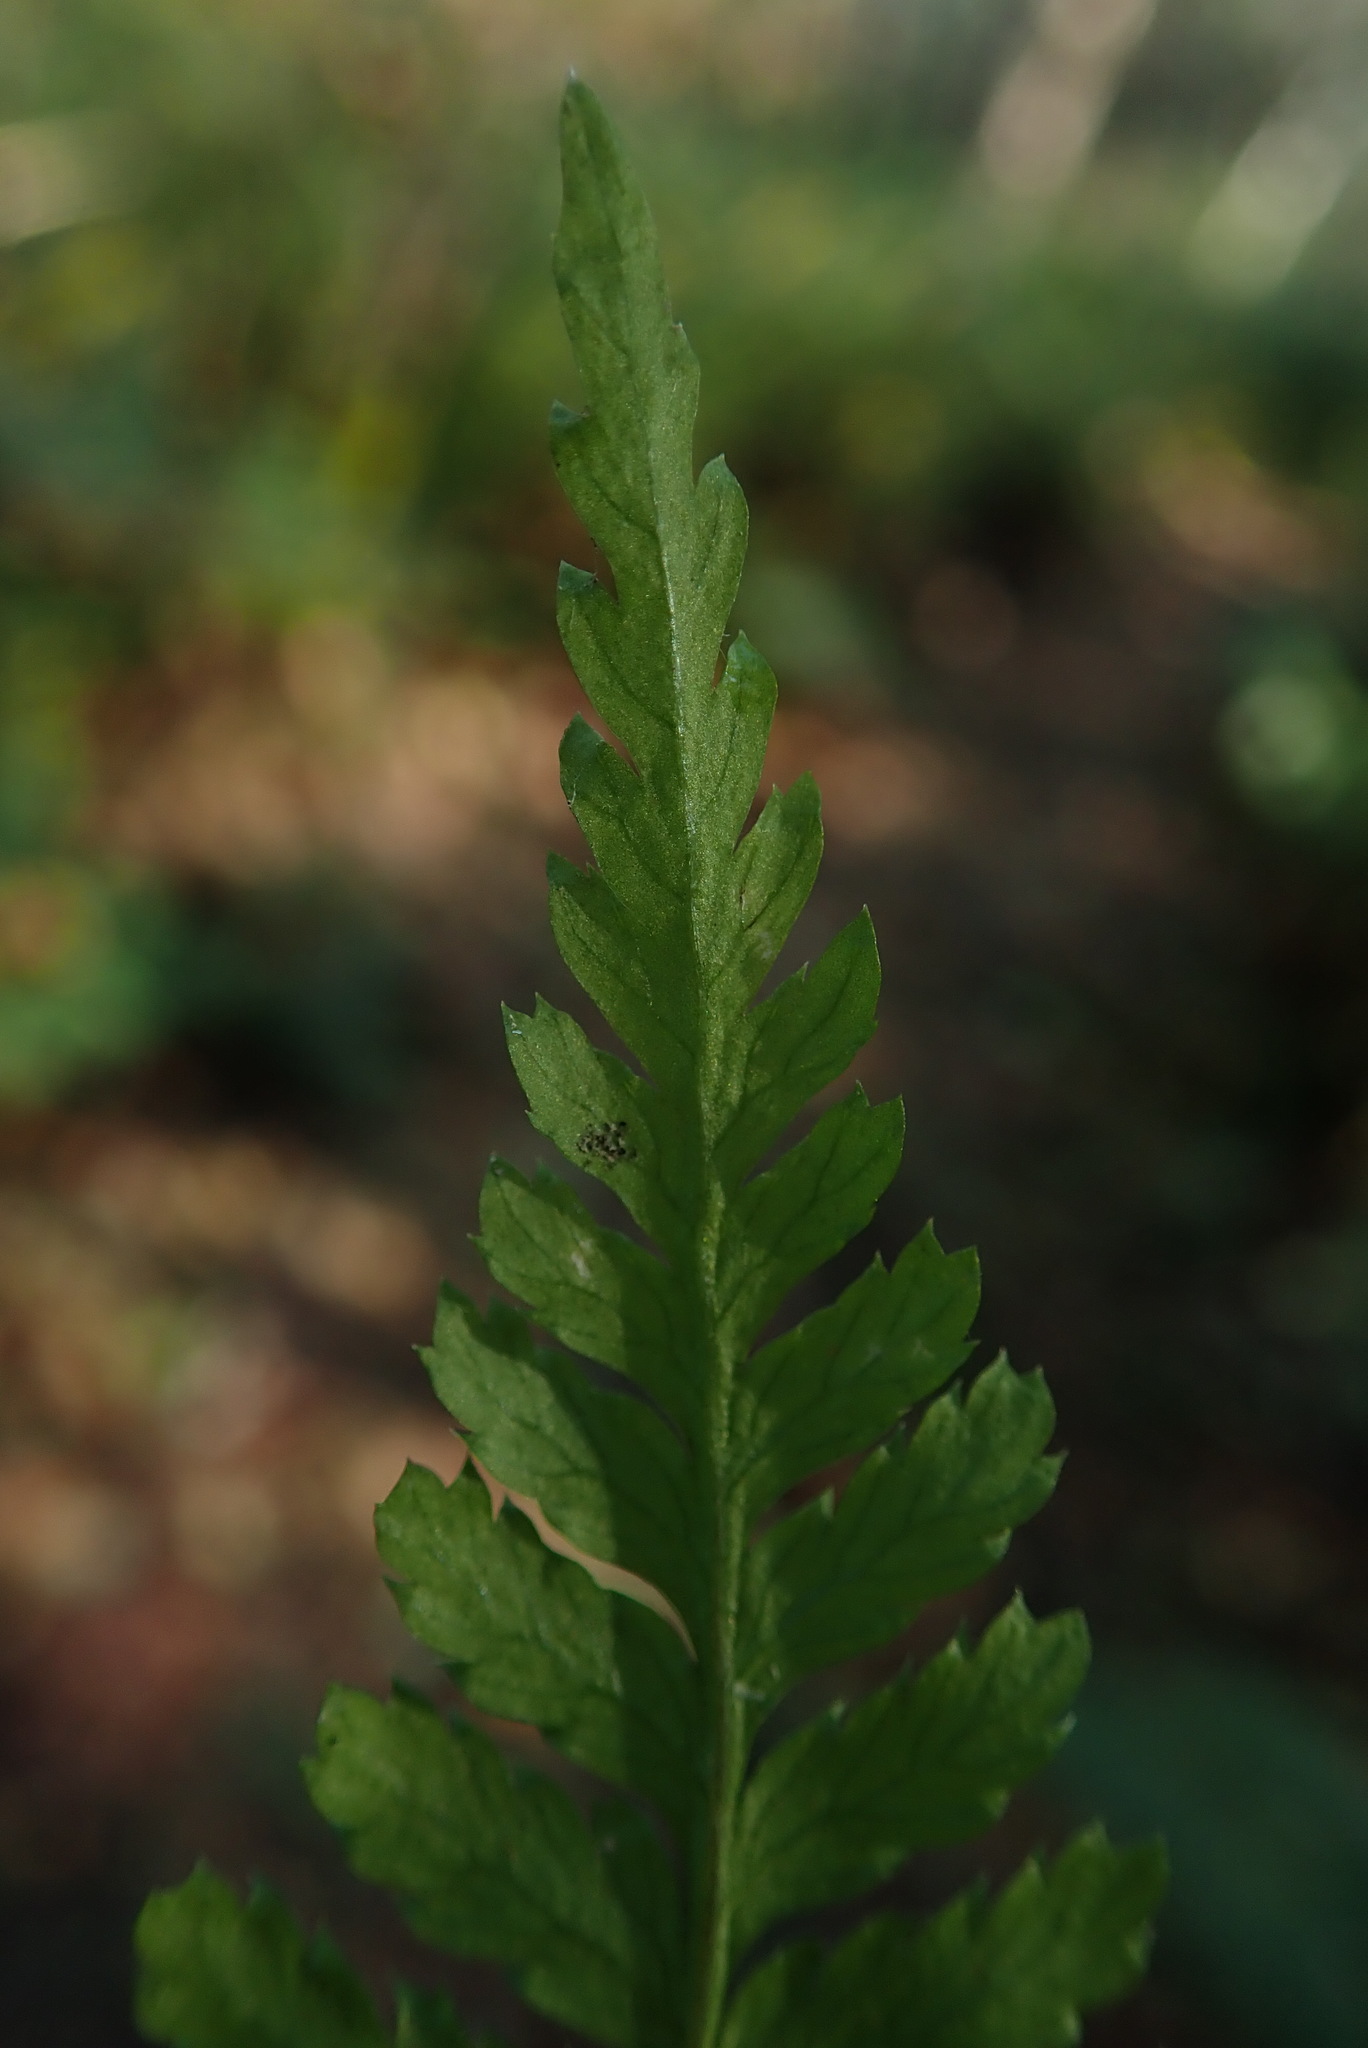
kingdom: Plantae
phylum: Tracheophyta
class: Polypodiopsida
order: Polypodiales
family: Dryopteridaceae
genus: Dryopteris
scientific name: Dryopteris expansa
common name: Northern buckler fern
